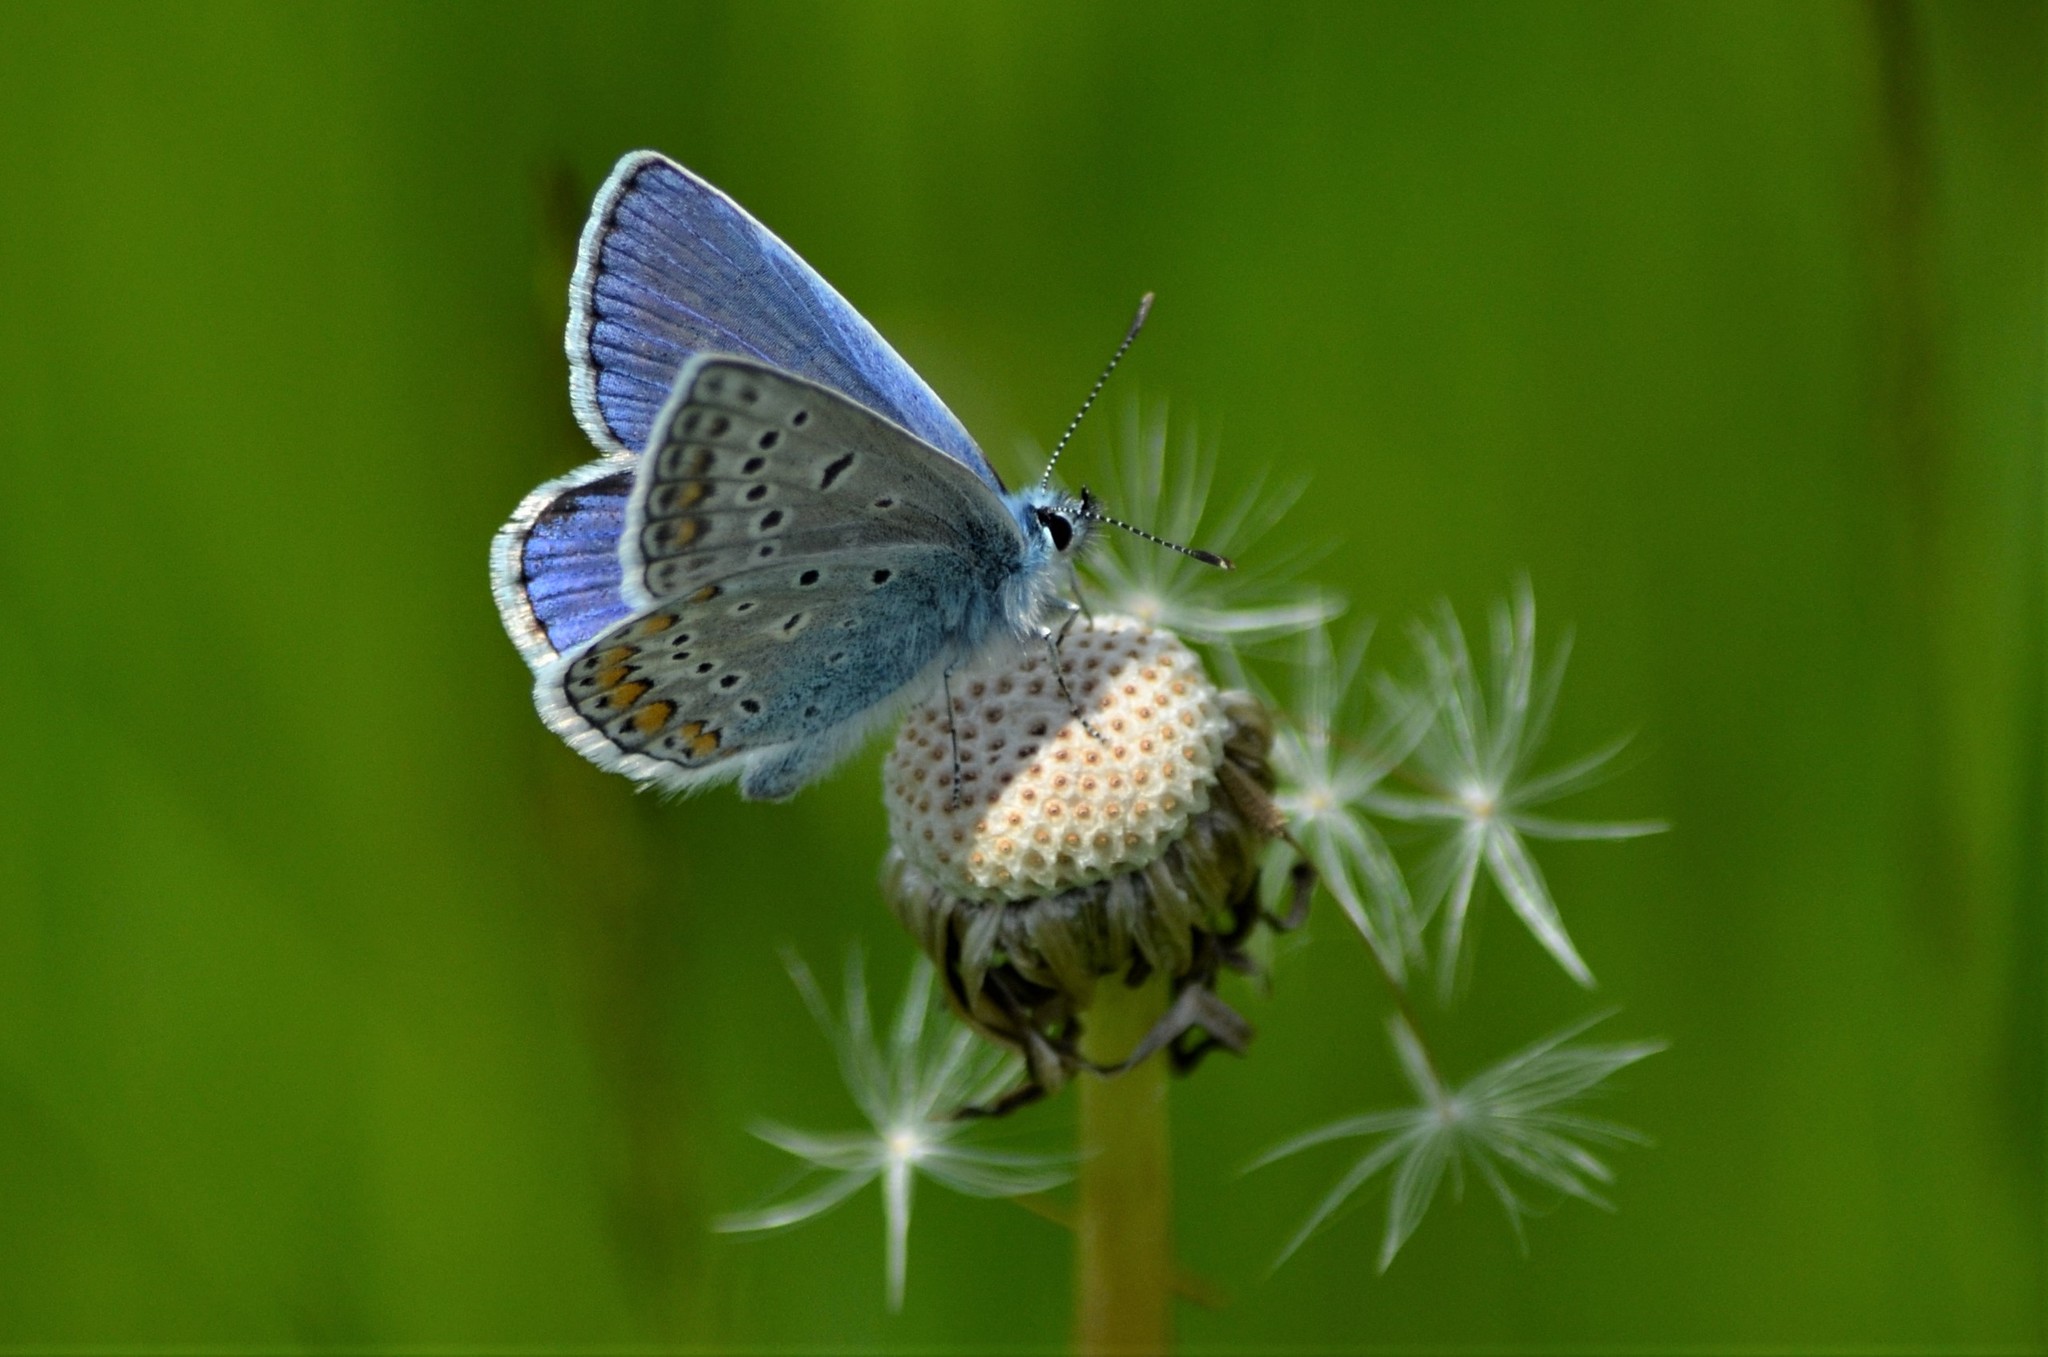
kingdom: Animalia
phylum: Arthropoda
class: Insecta
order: Lepidoptera
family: Lycaenidae
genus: Polyommatus
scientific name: Polyommatus icarus
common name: Common blue
